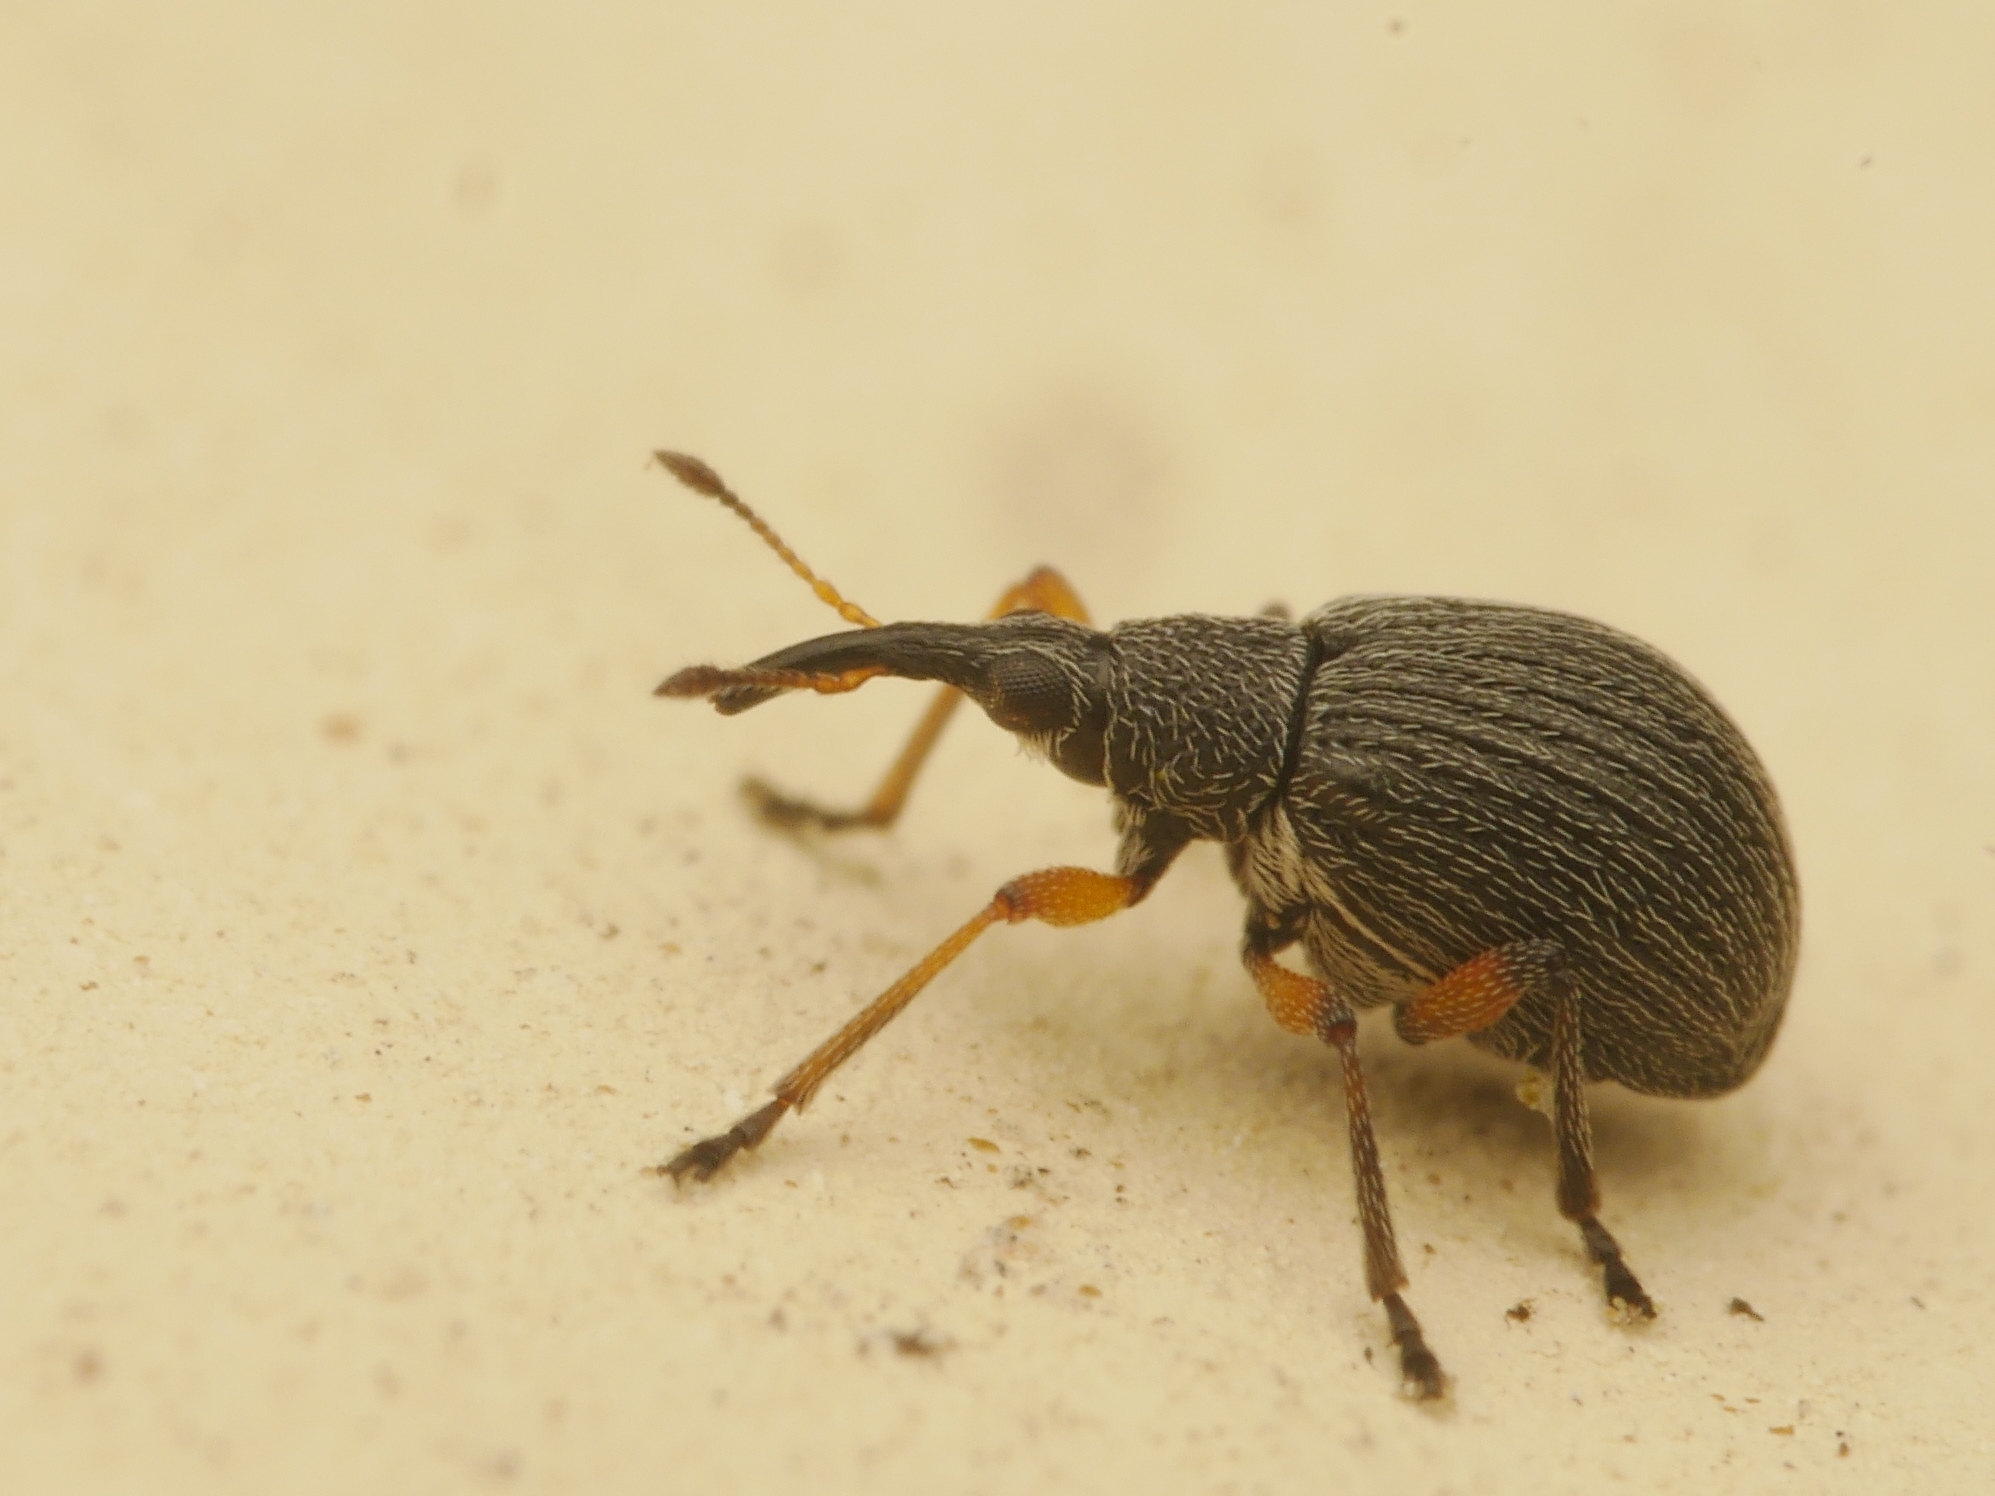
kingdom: Animalia
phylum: Arthropoda
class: Insecta
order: Coleoptera
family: Brentidae
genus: Eutrichapion
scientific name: Eutrichapion viciae
